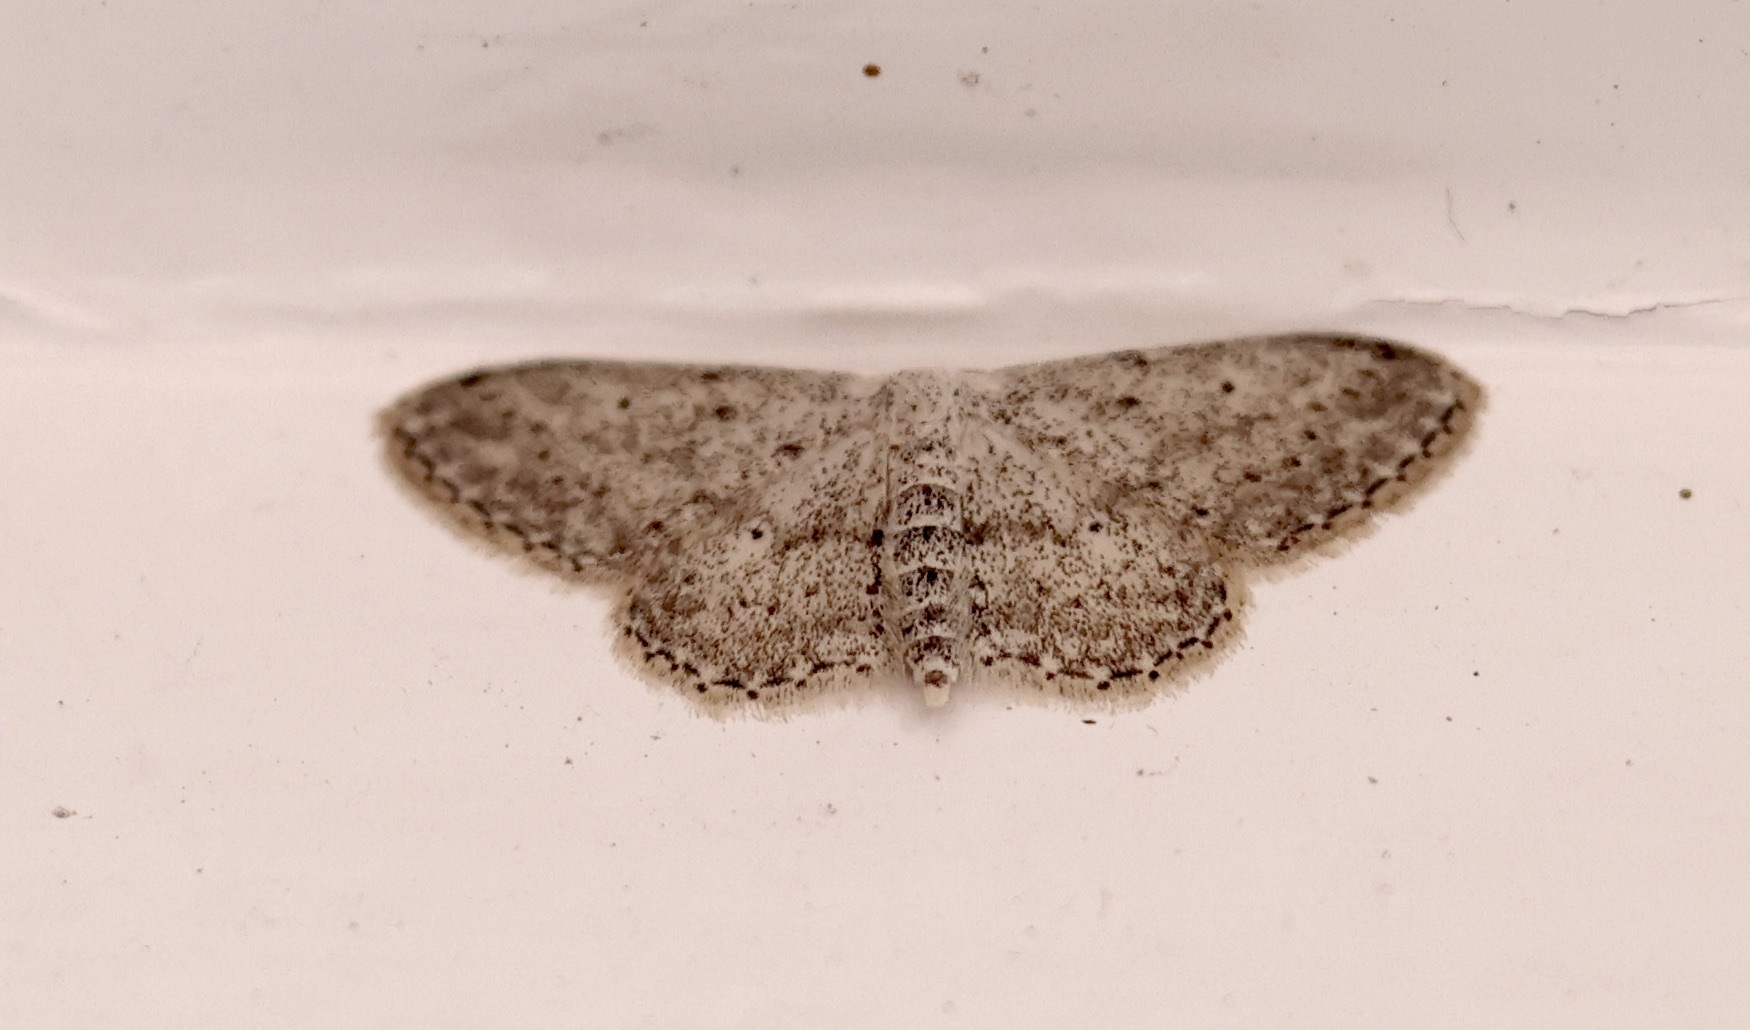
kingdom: Animalia
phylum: Arthropoda
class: Insecta
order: Lepidoptera
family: Geometridae
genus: Idaea
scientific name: Idaea seriata
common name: Small dusty wave
